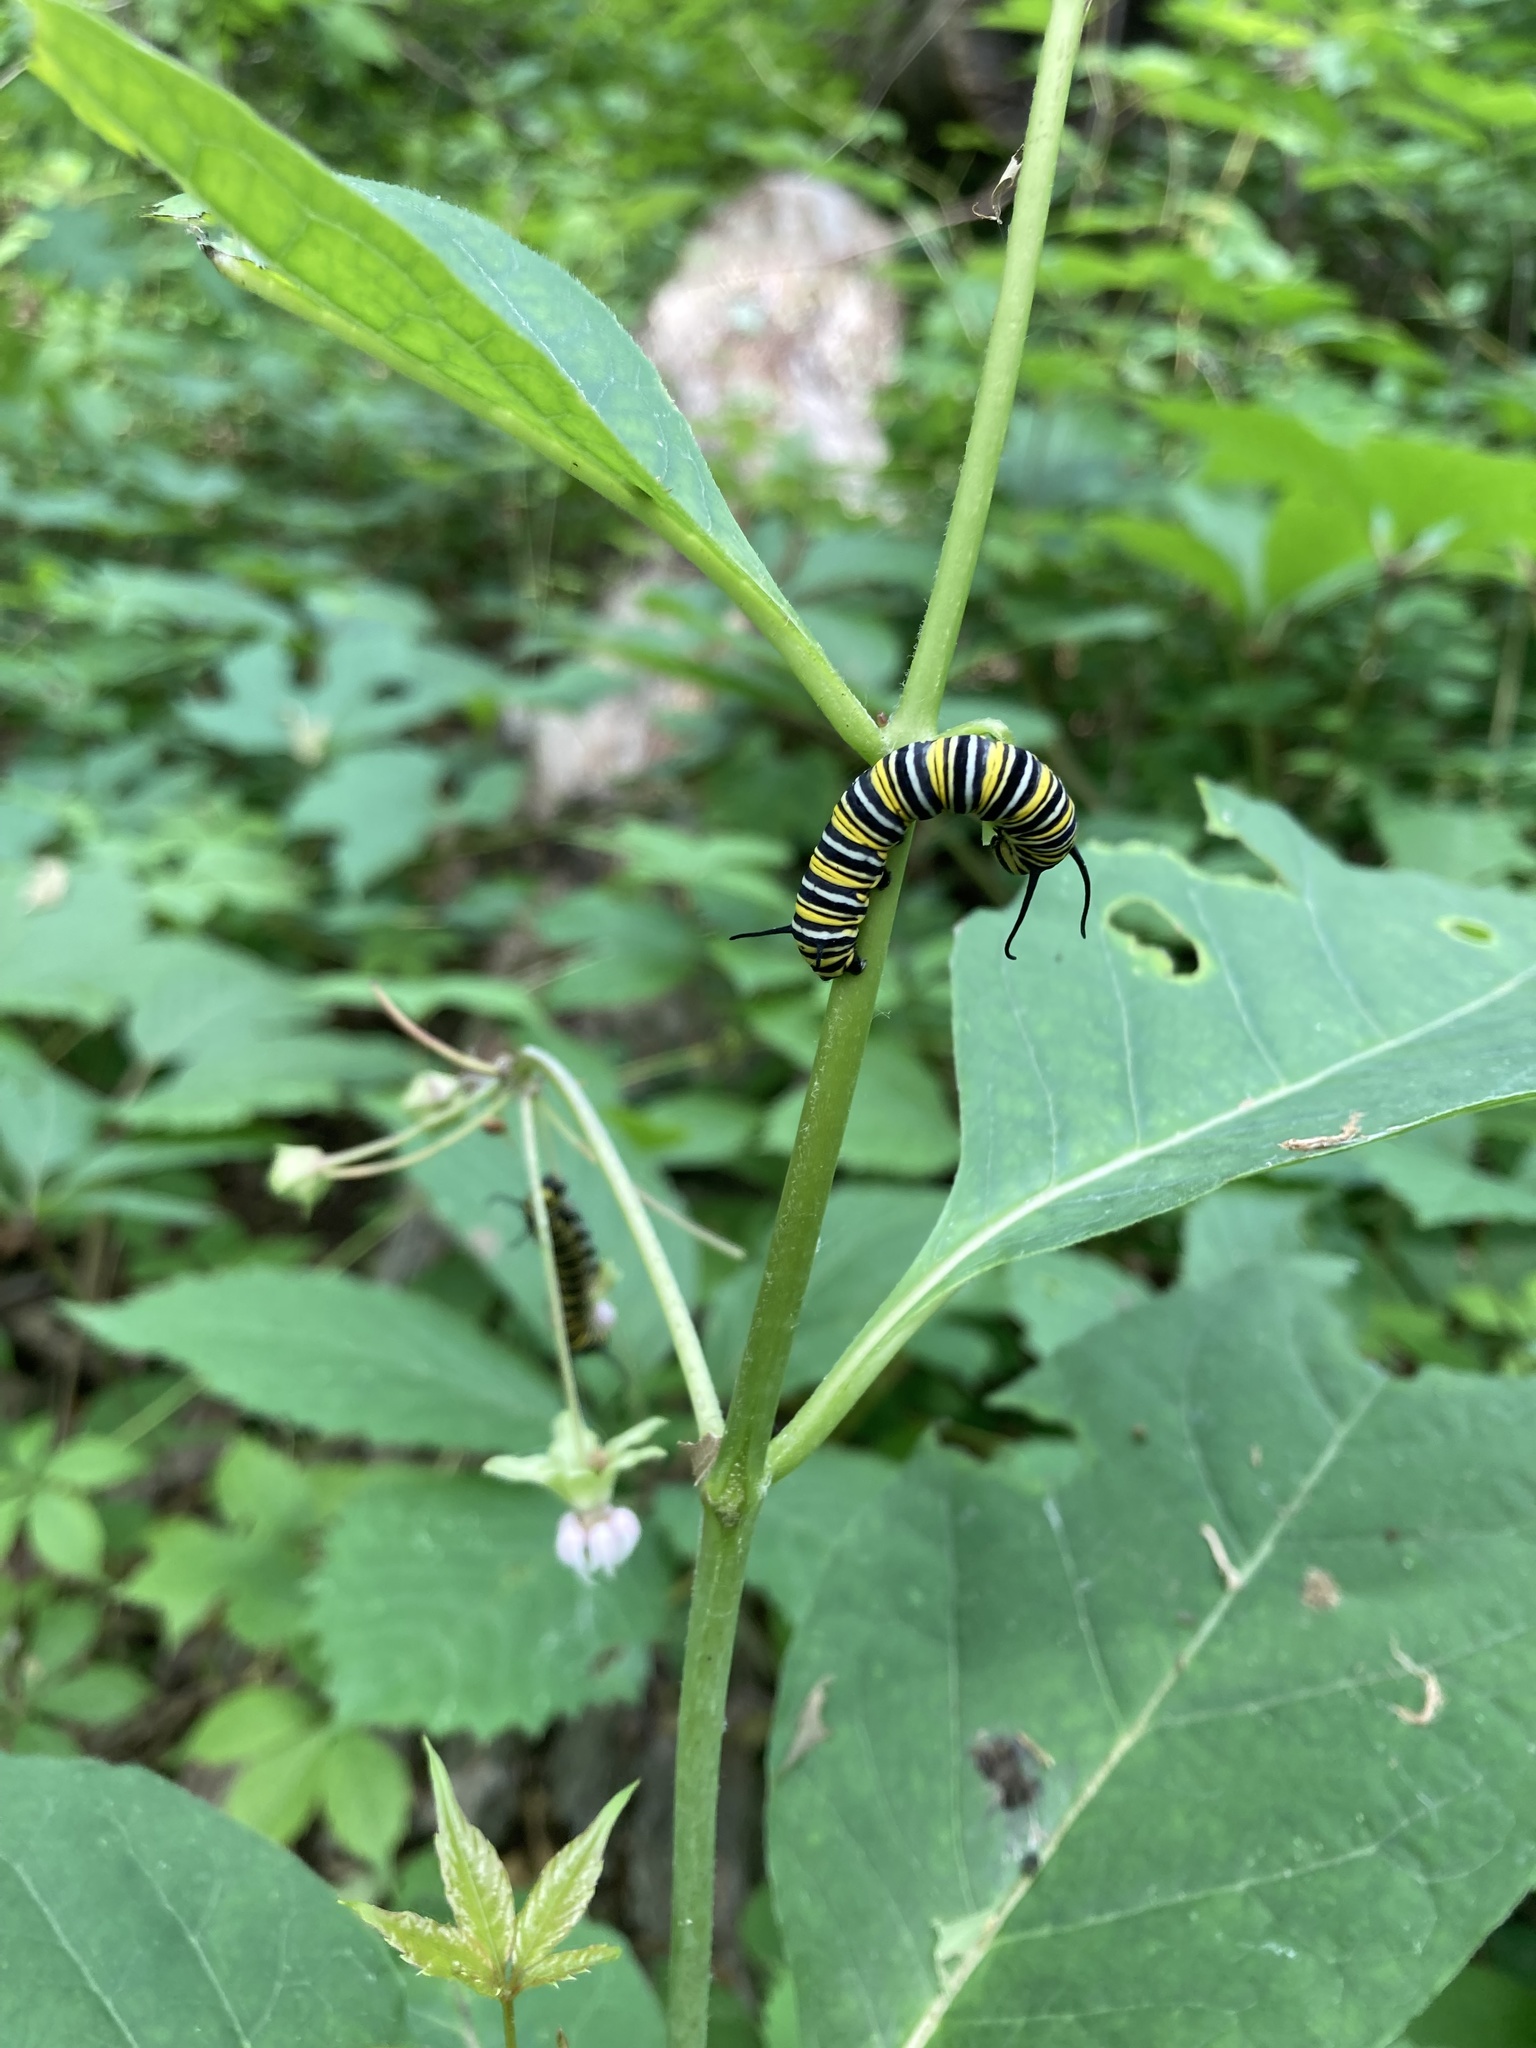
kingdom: Animalia
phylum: Arthropoda
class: Insecta
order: Lepidoptera
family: Nymphalidae
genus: Danaus
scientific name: Danaus plexippus
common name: Monarch
